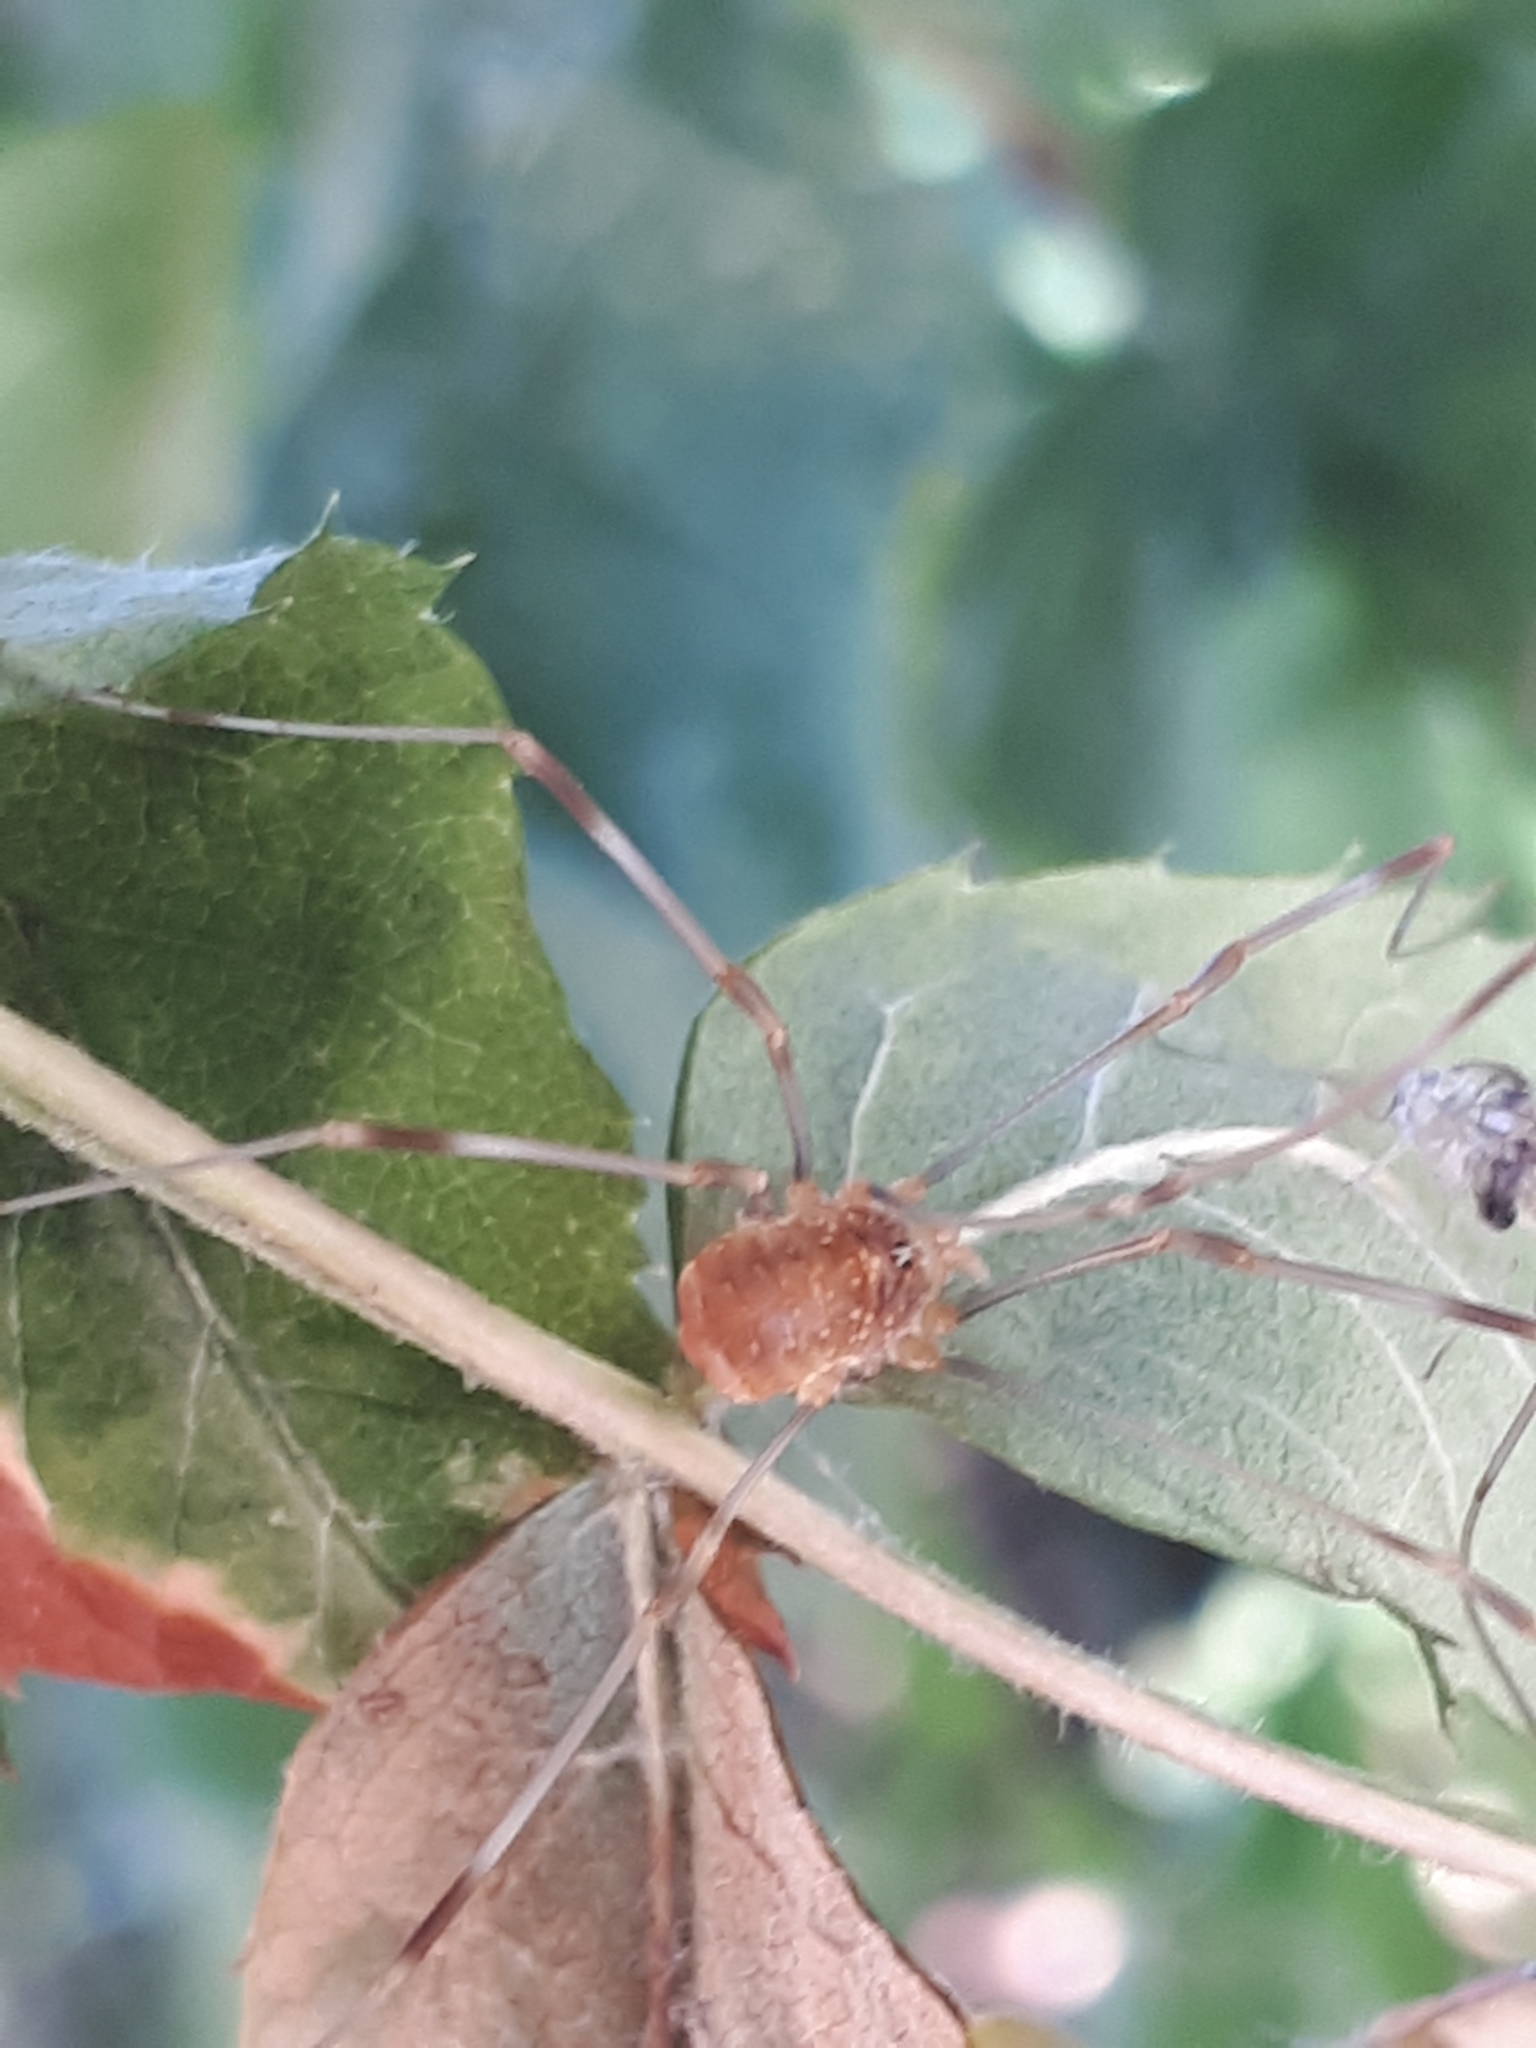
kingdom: Animalia
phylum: Arthropoda
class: Arachnida
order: Opiliones
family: Phalangiidae
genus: Opilio
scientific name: Opilio canestrinii
